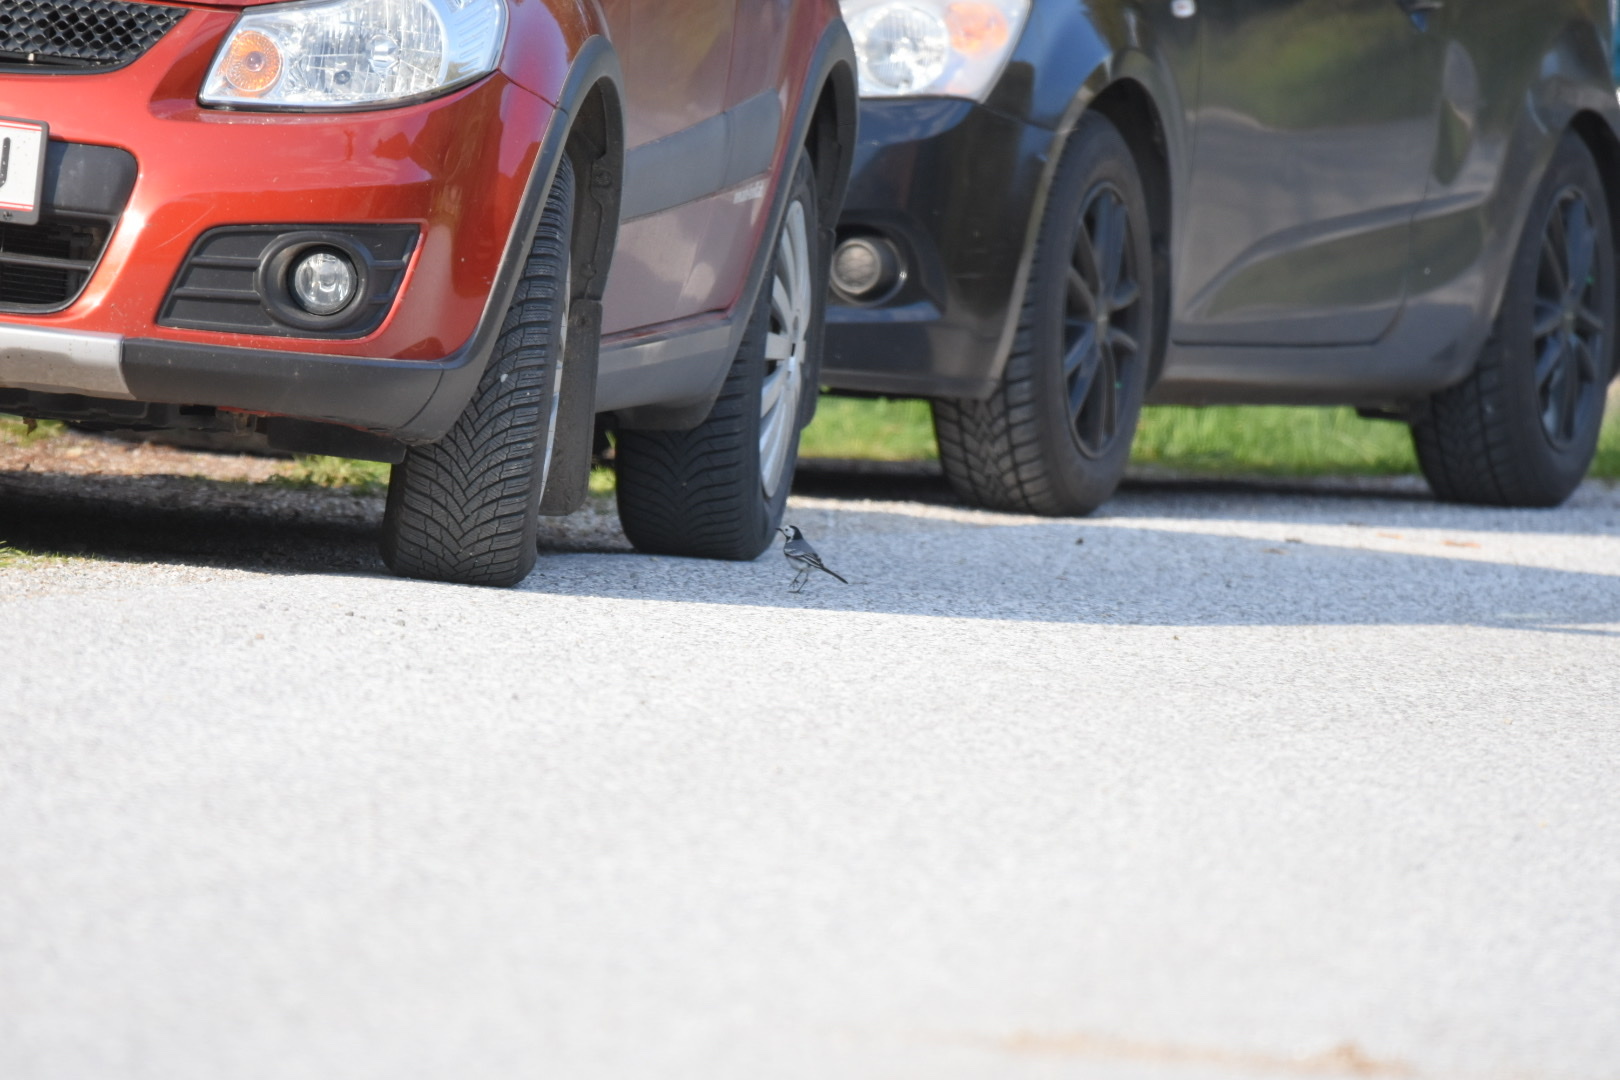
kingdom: Animalia
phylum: Chordata
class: Aves
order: Passeriformes
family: Motacillidae
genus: Motacilla
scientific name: Motacilla alba
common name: White wagtail
